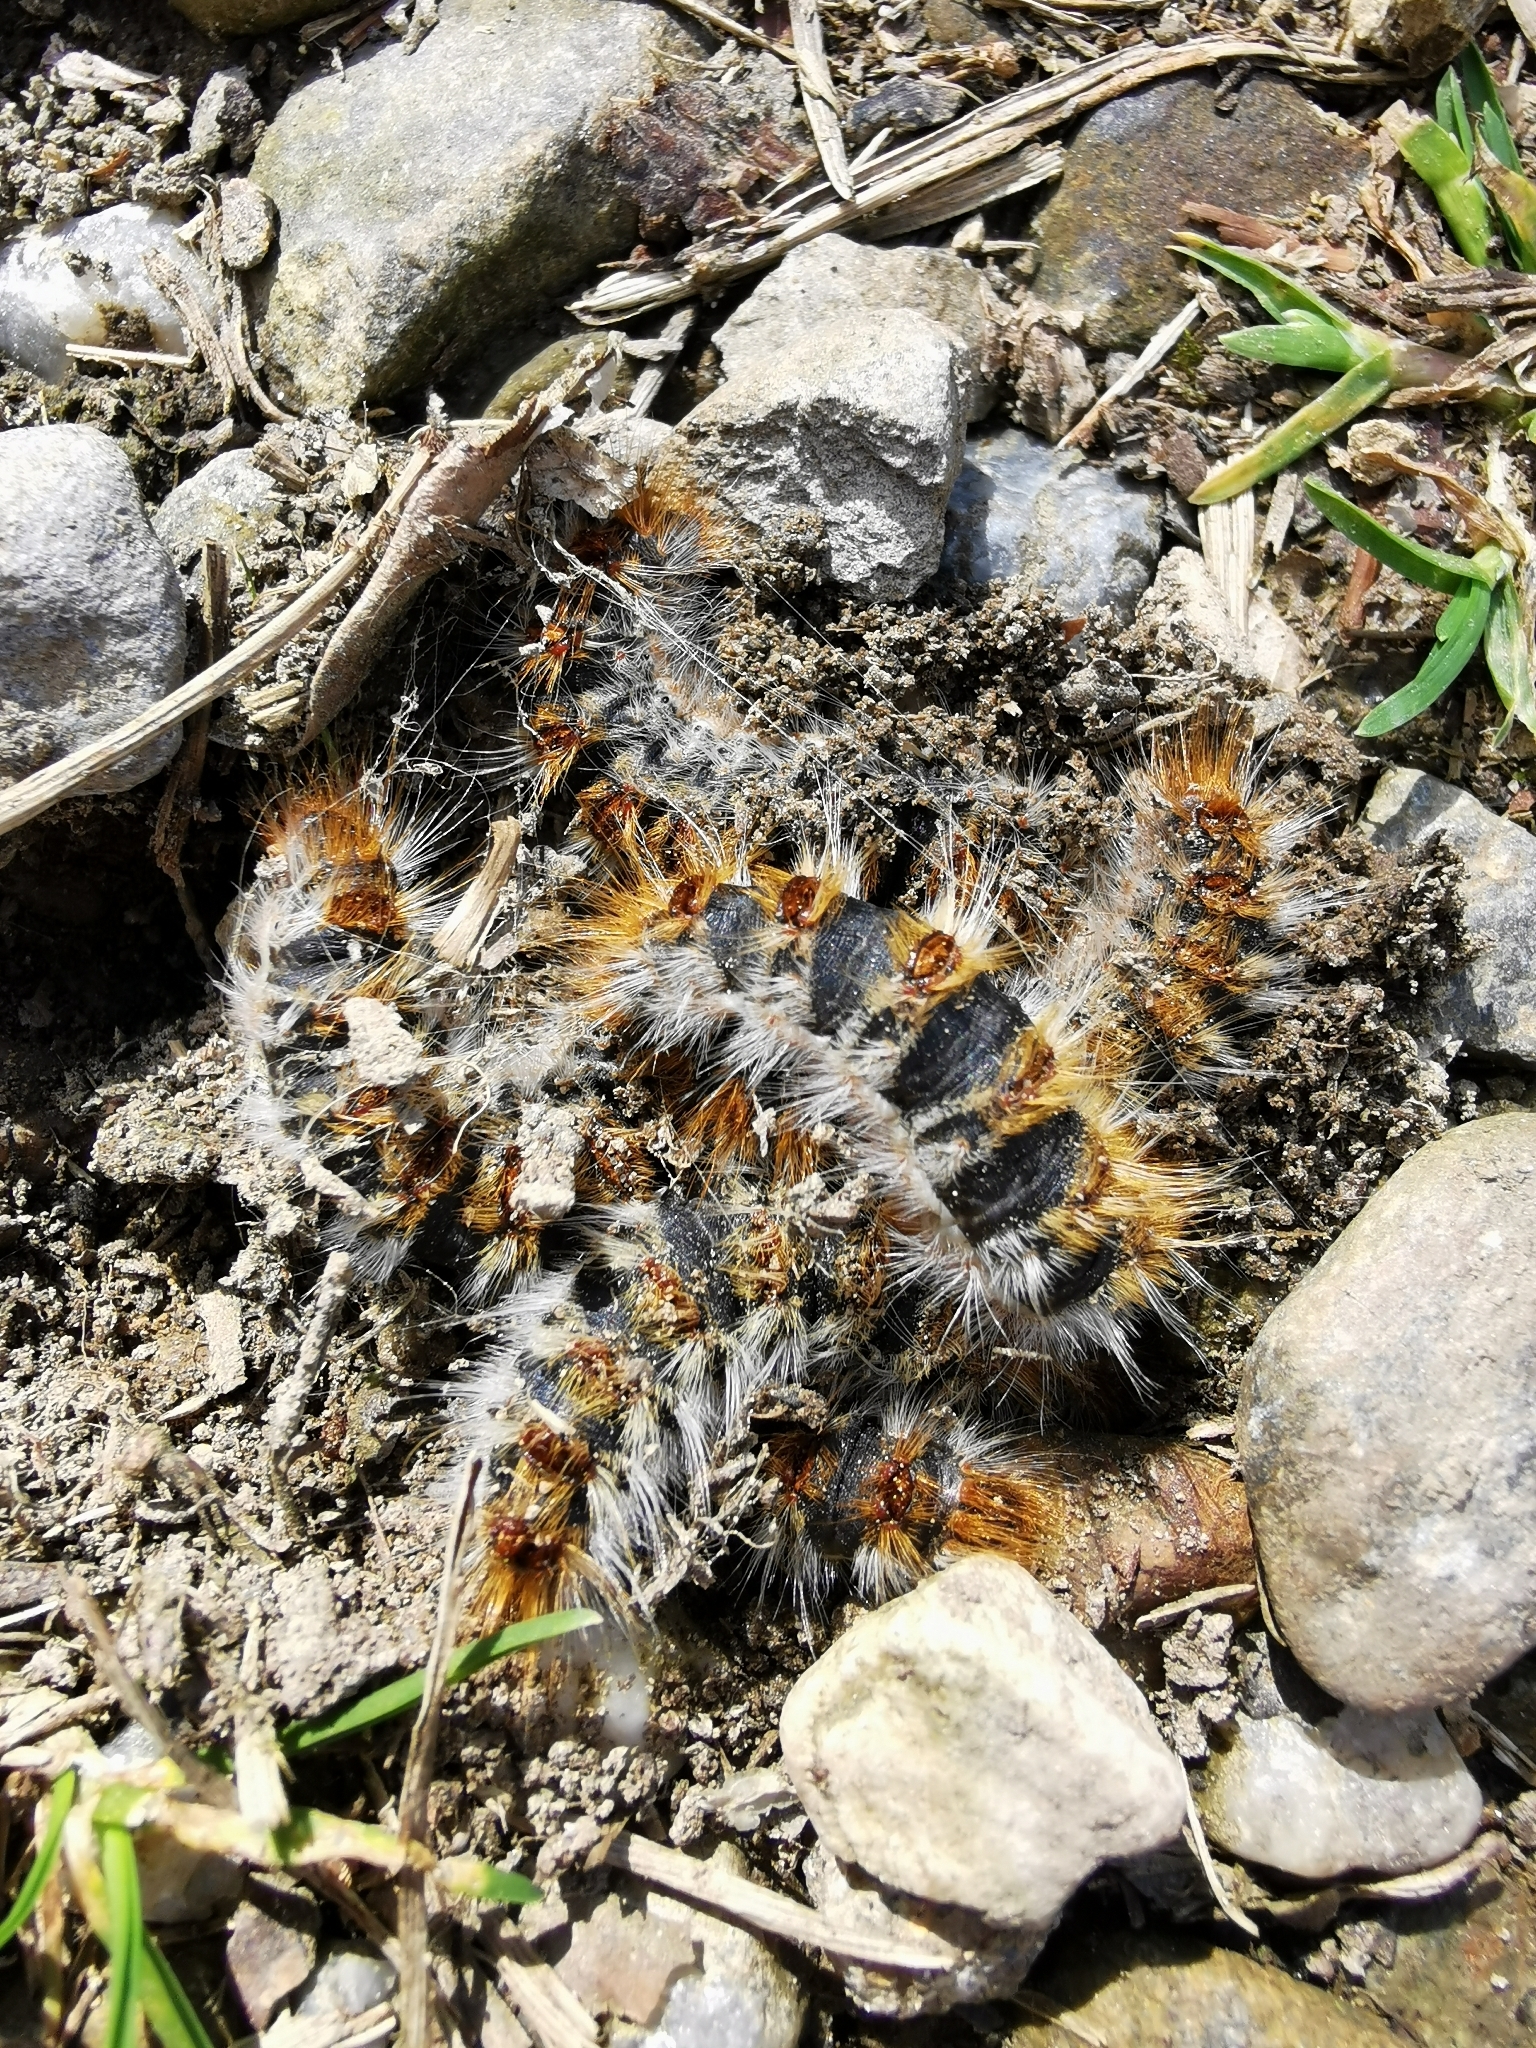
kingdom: Animalia
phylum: Arthropoda
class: Insecta
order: Lepidoptera
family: Notodontidae
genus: Thaumetopoea
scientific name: Thaumetopoea pityocampa
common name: Pine processionary
